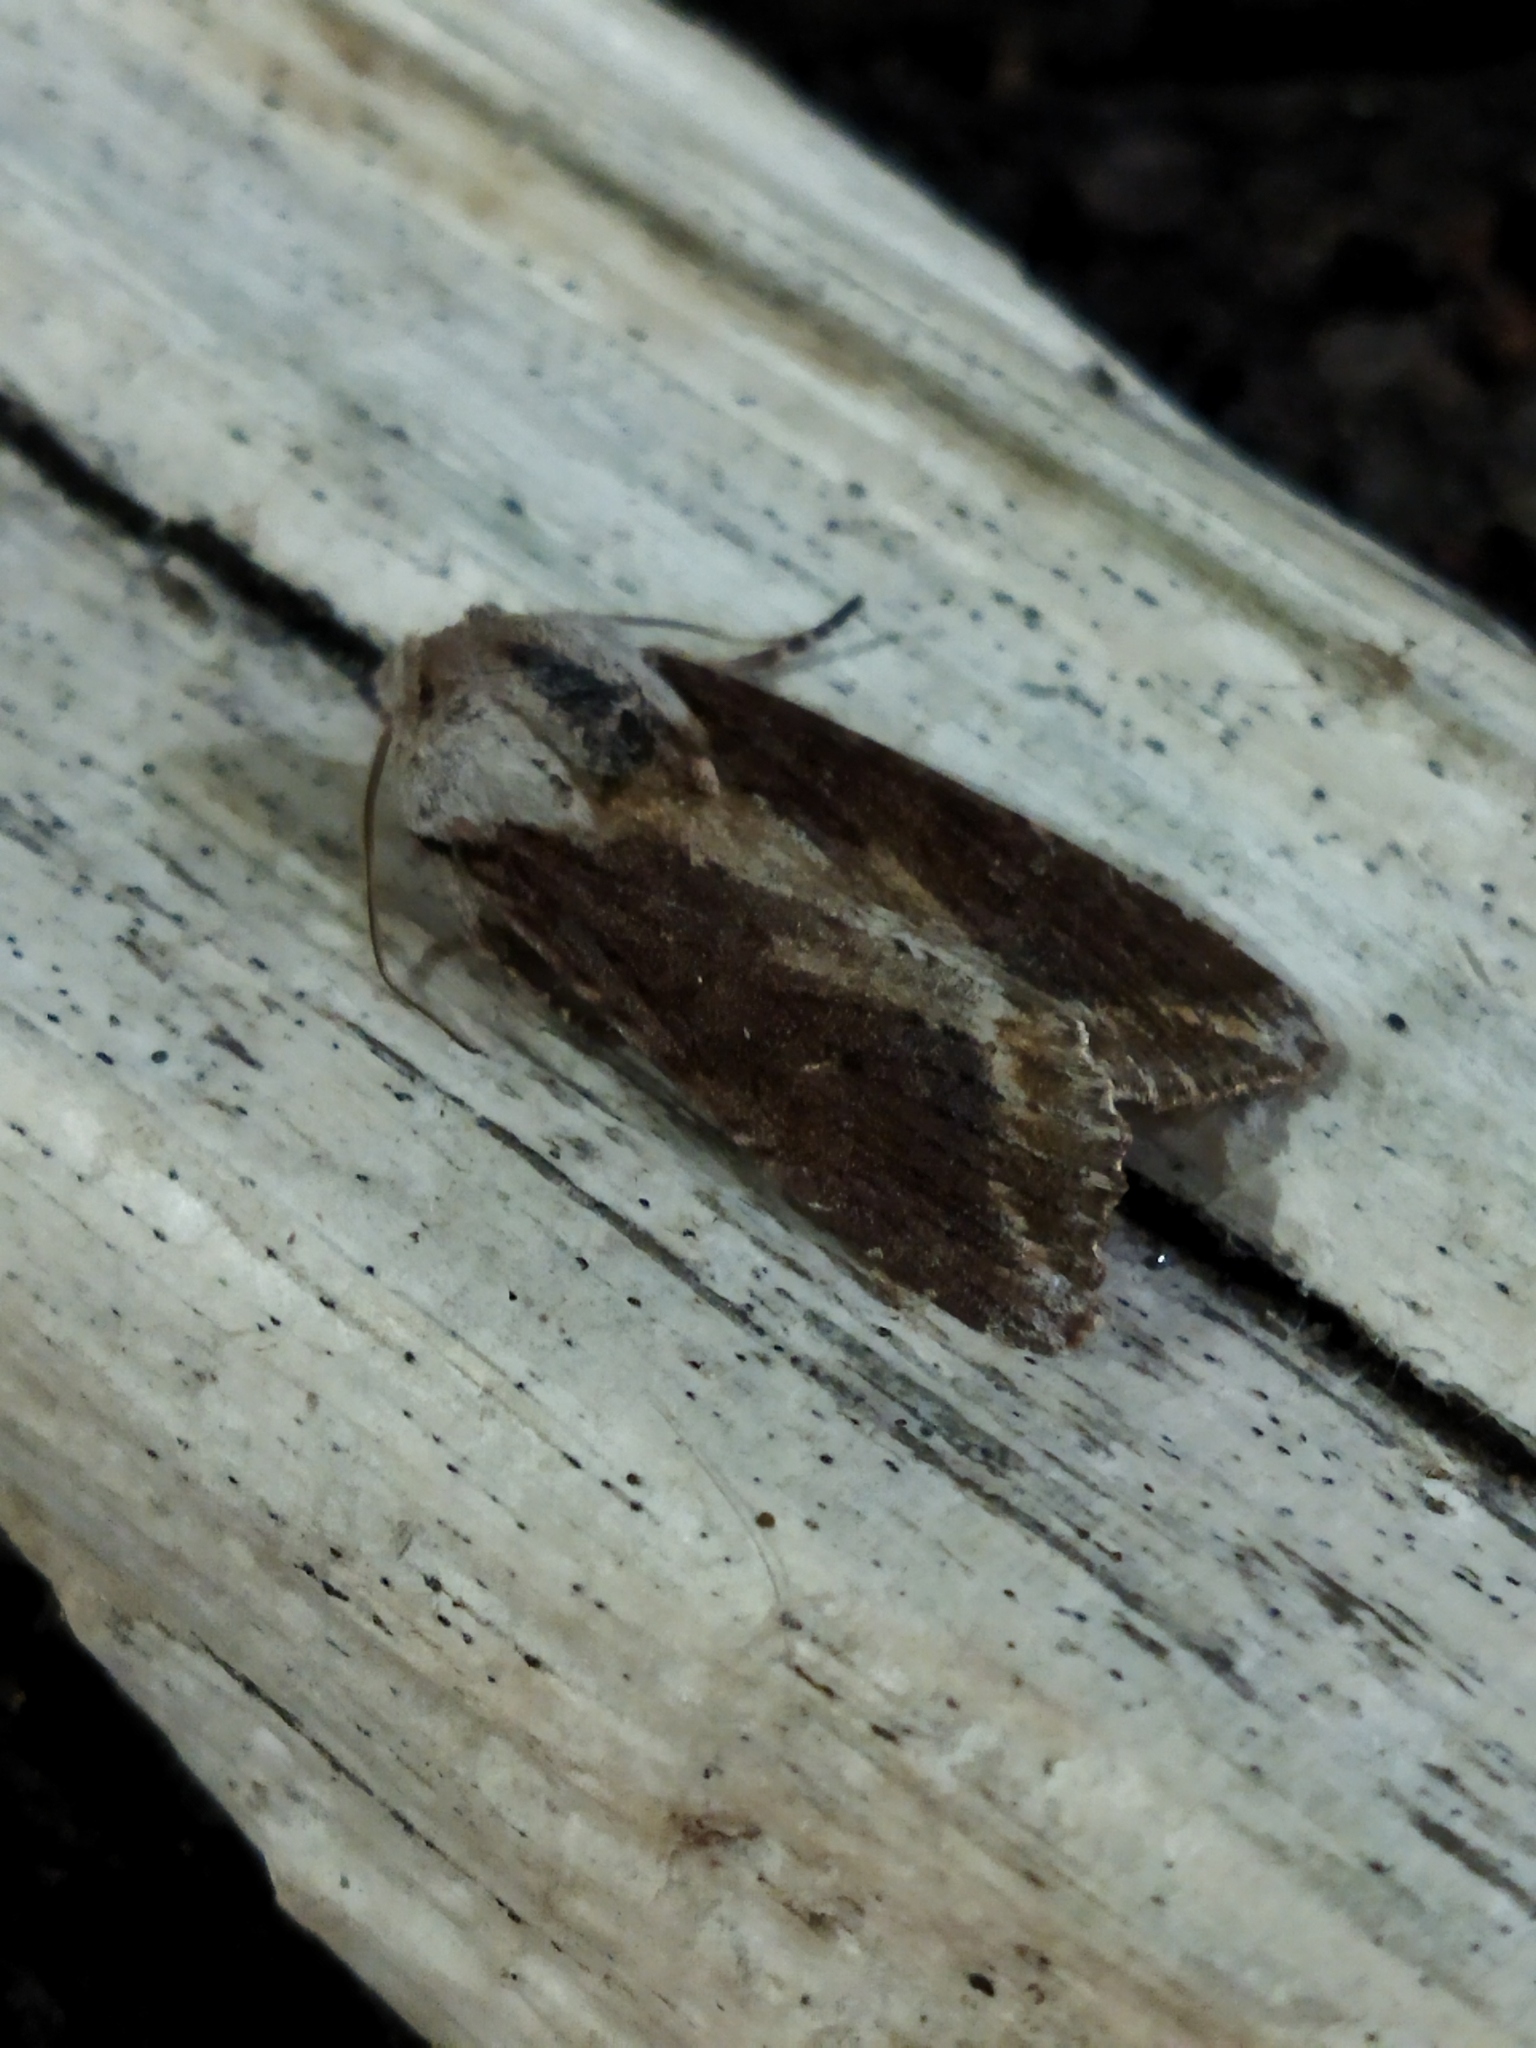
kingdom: Animalia
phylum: Arthropoda
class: Insecta
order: Lepidoptera
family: Noctuidae
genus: Egira
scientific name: Egira tibori
